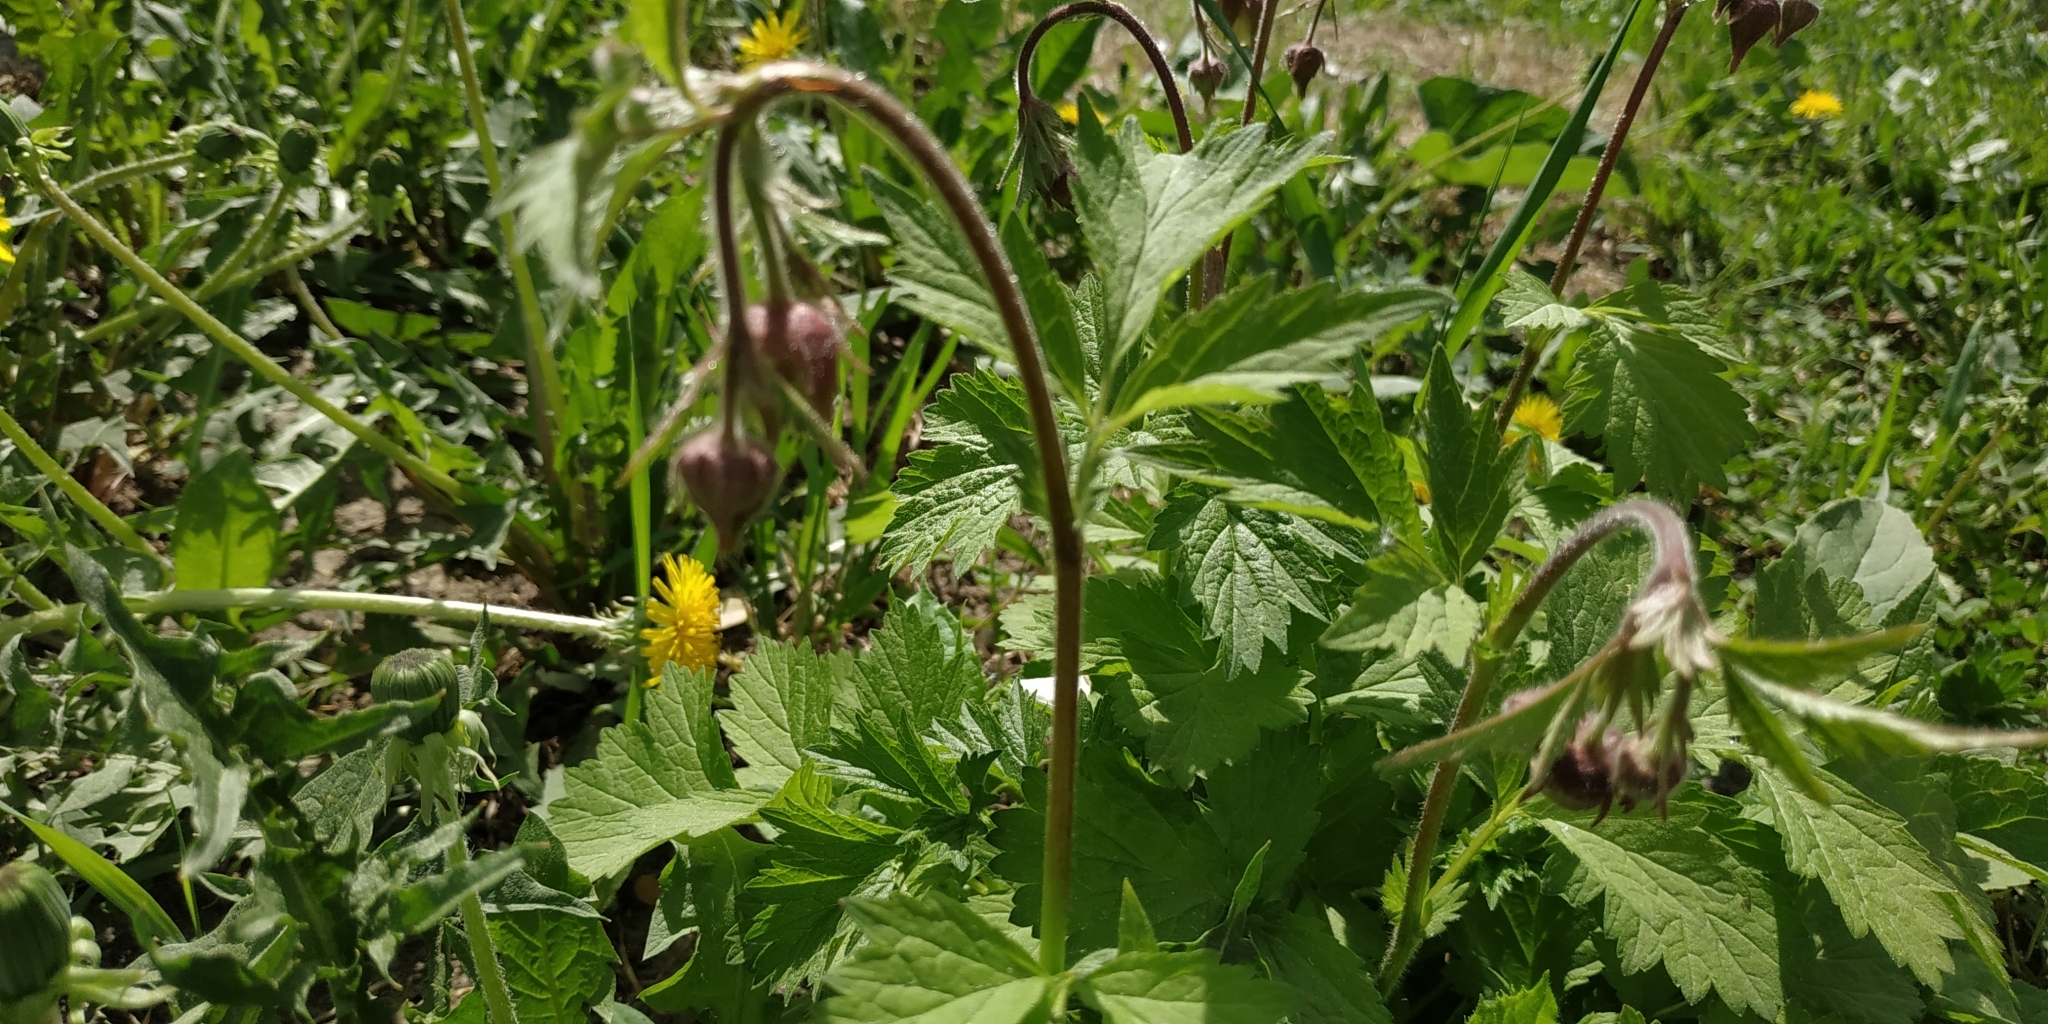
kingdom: Plantae
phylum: Tracheophyta
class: Magnoliopsida
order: Rosales
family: Rosaceae
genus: Geum
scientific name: Geum rivale
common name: Water avens
